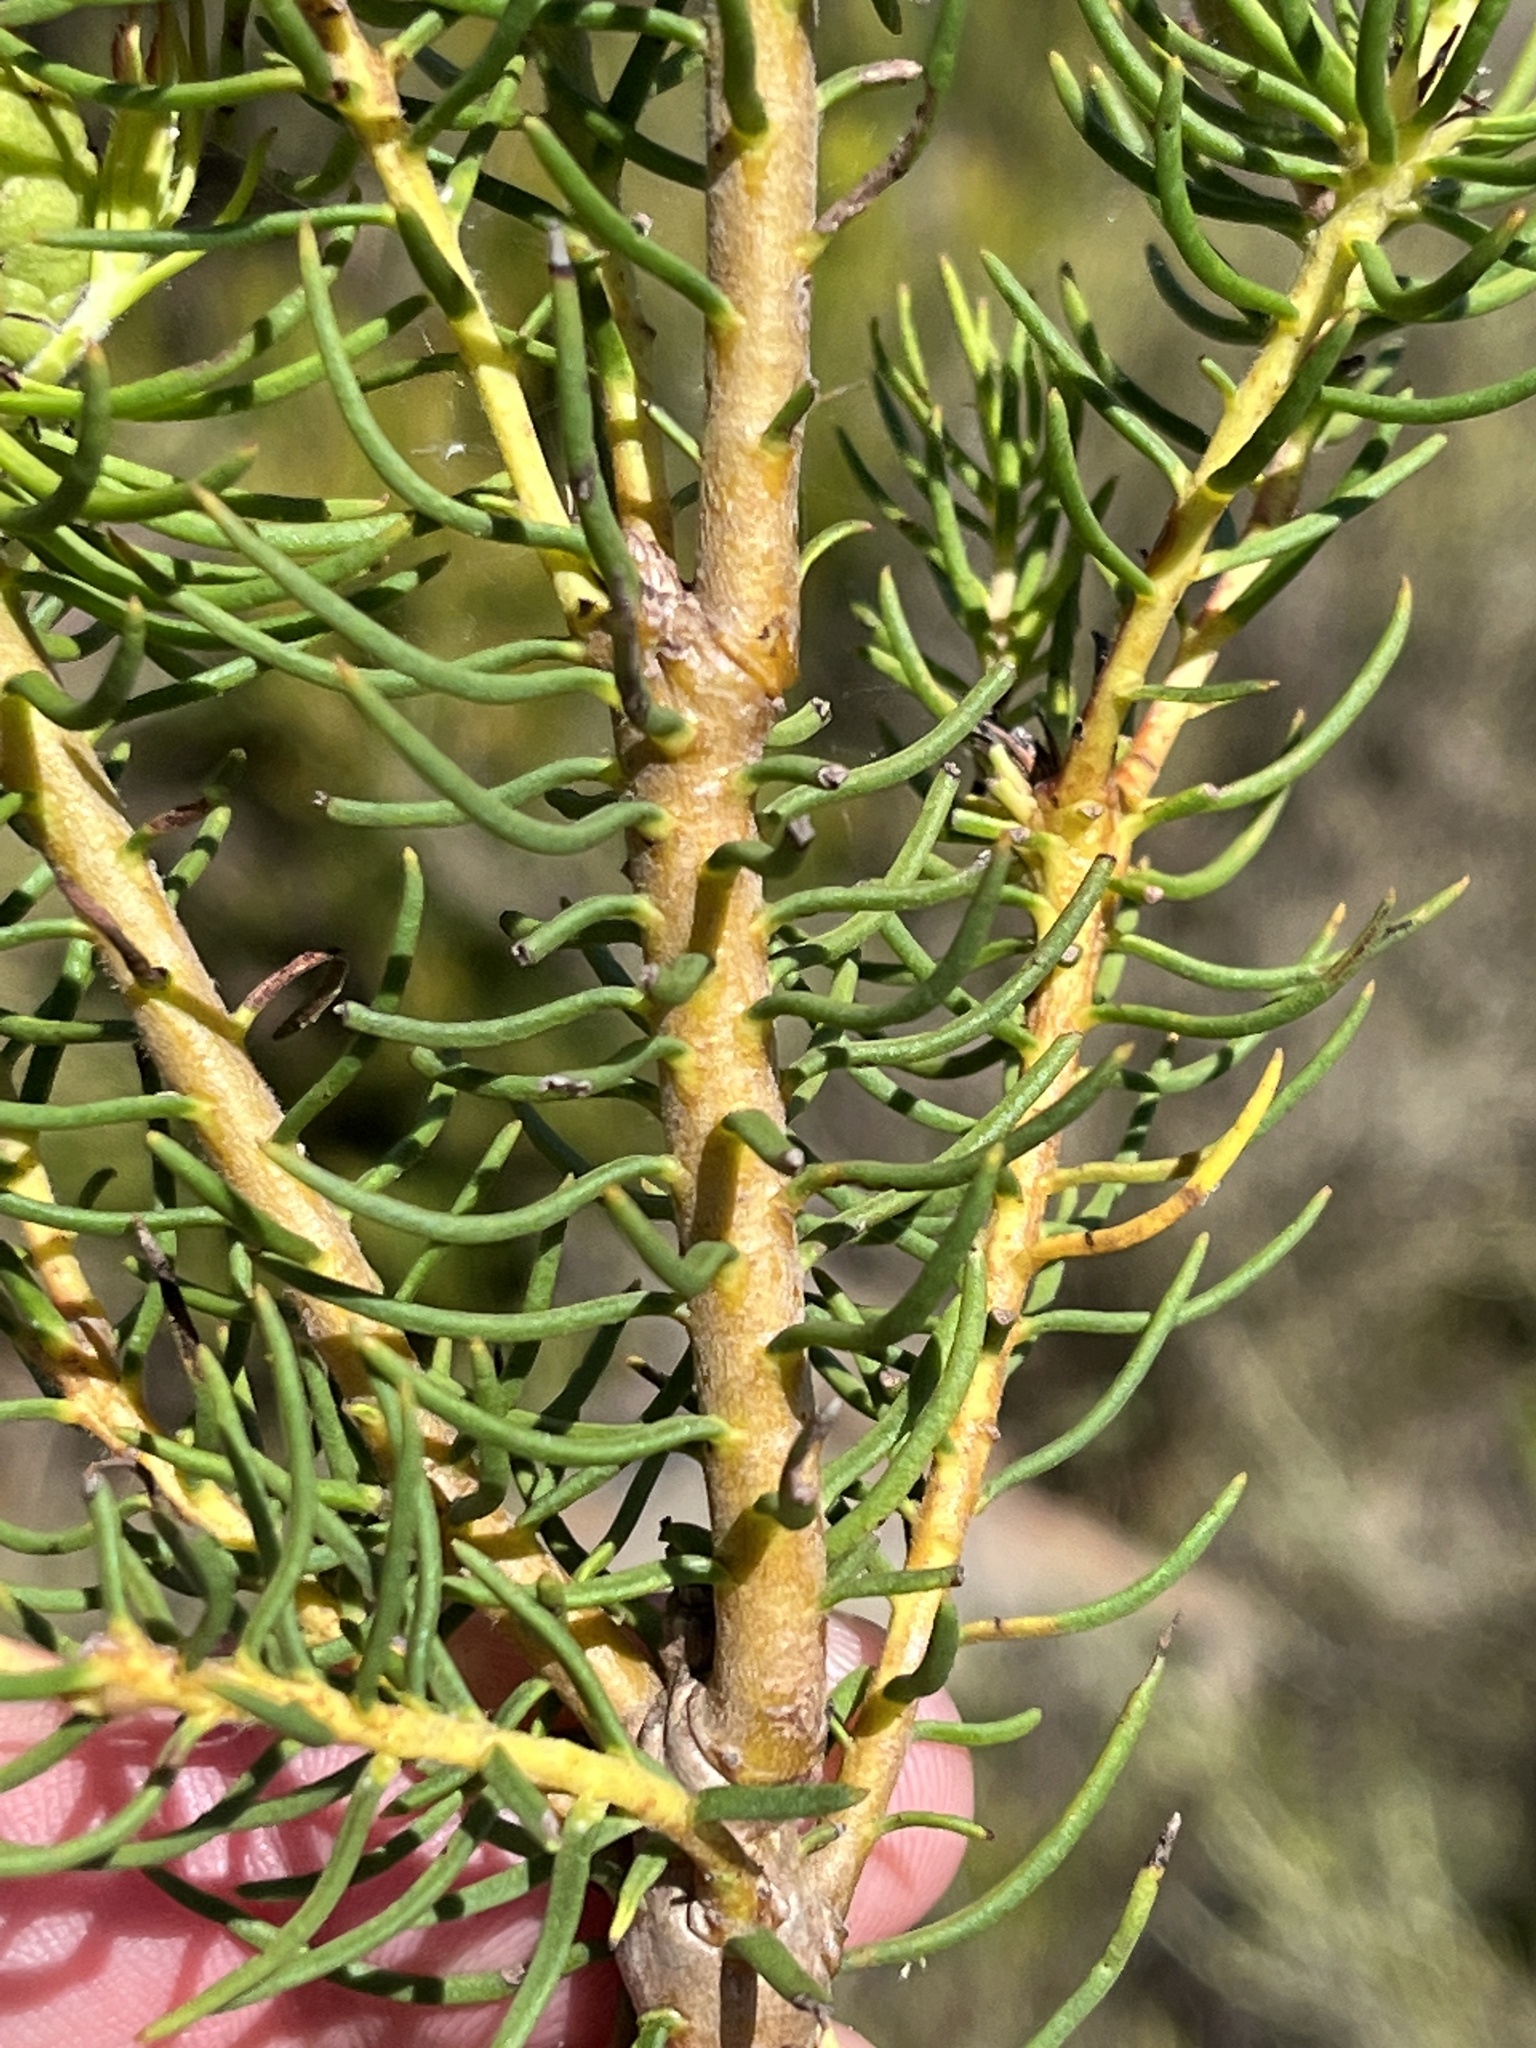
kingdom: Plantae
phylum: Tracheophyta
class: Magnoliopsida
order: Proteales
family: Proteaceae
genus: Leucadendron
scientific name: Leucadendron teretifolium
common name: Needle-leaf conebush
